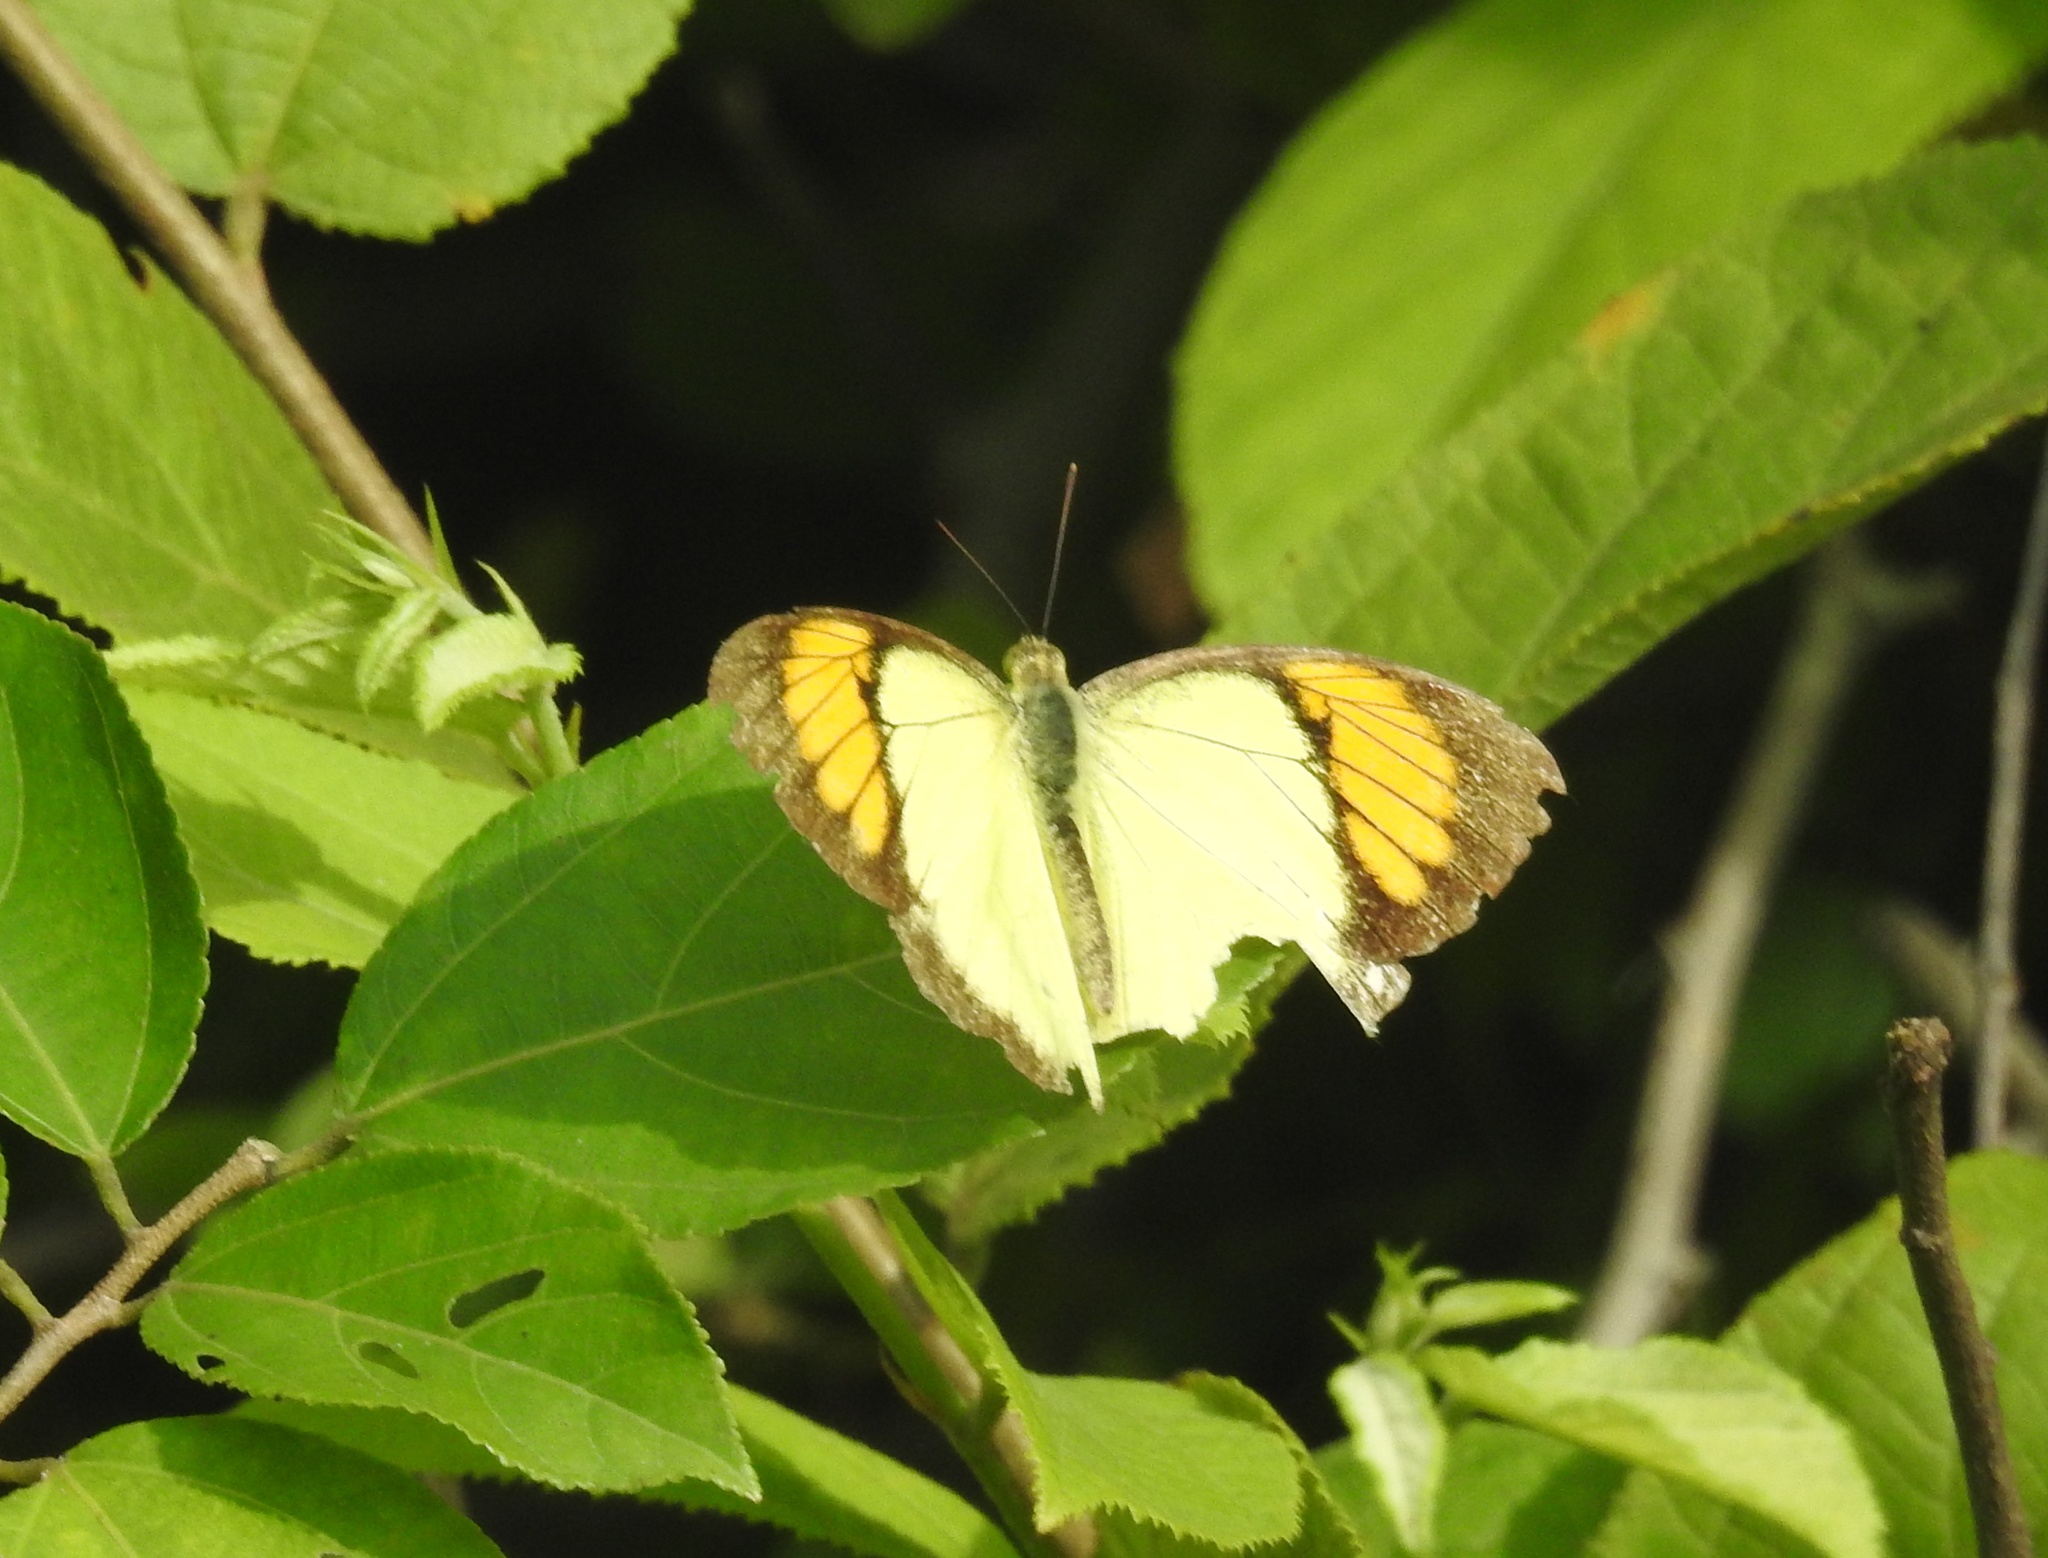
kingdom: Animalia
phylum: Arthropoda
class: Insecta
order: Lepidoptera
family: Pieridae
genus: Ixias
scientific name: Ixias pyrene
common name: Yellow orange tip
